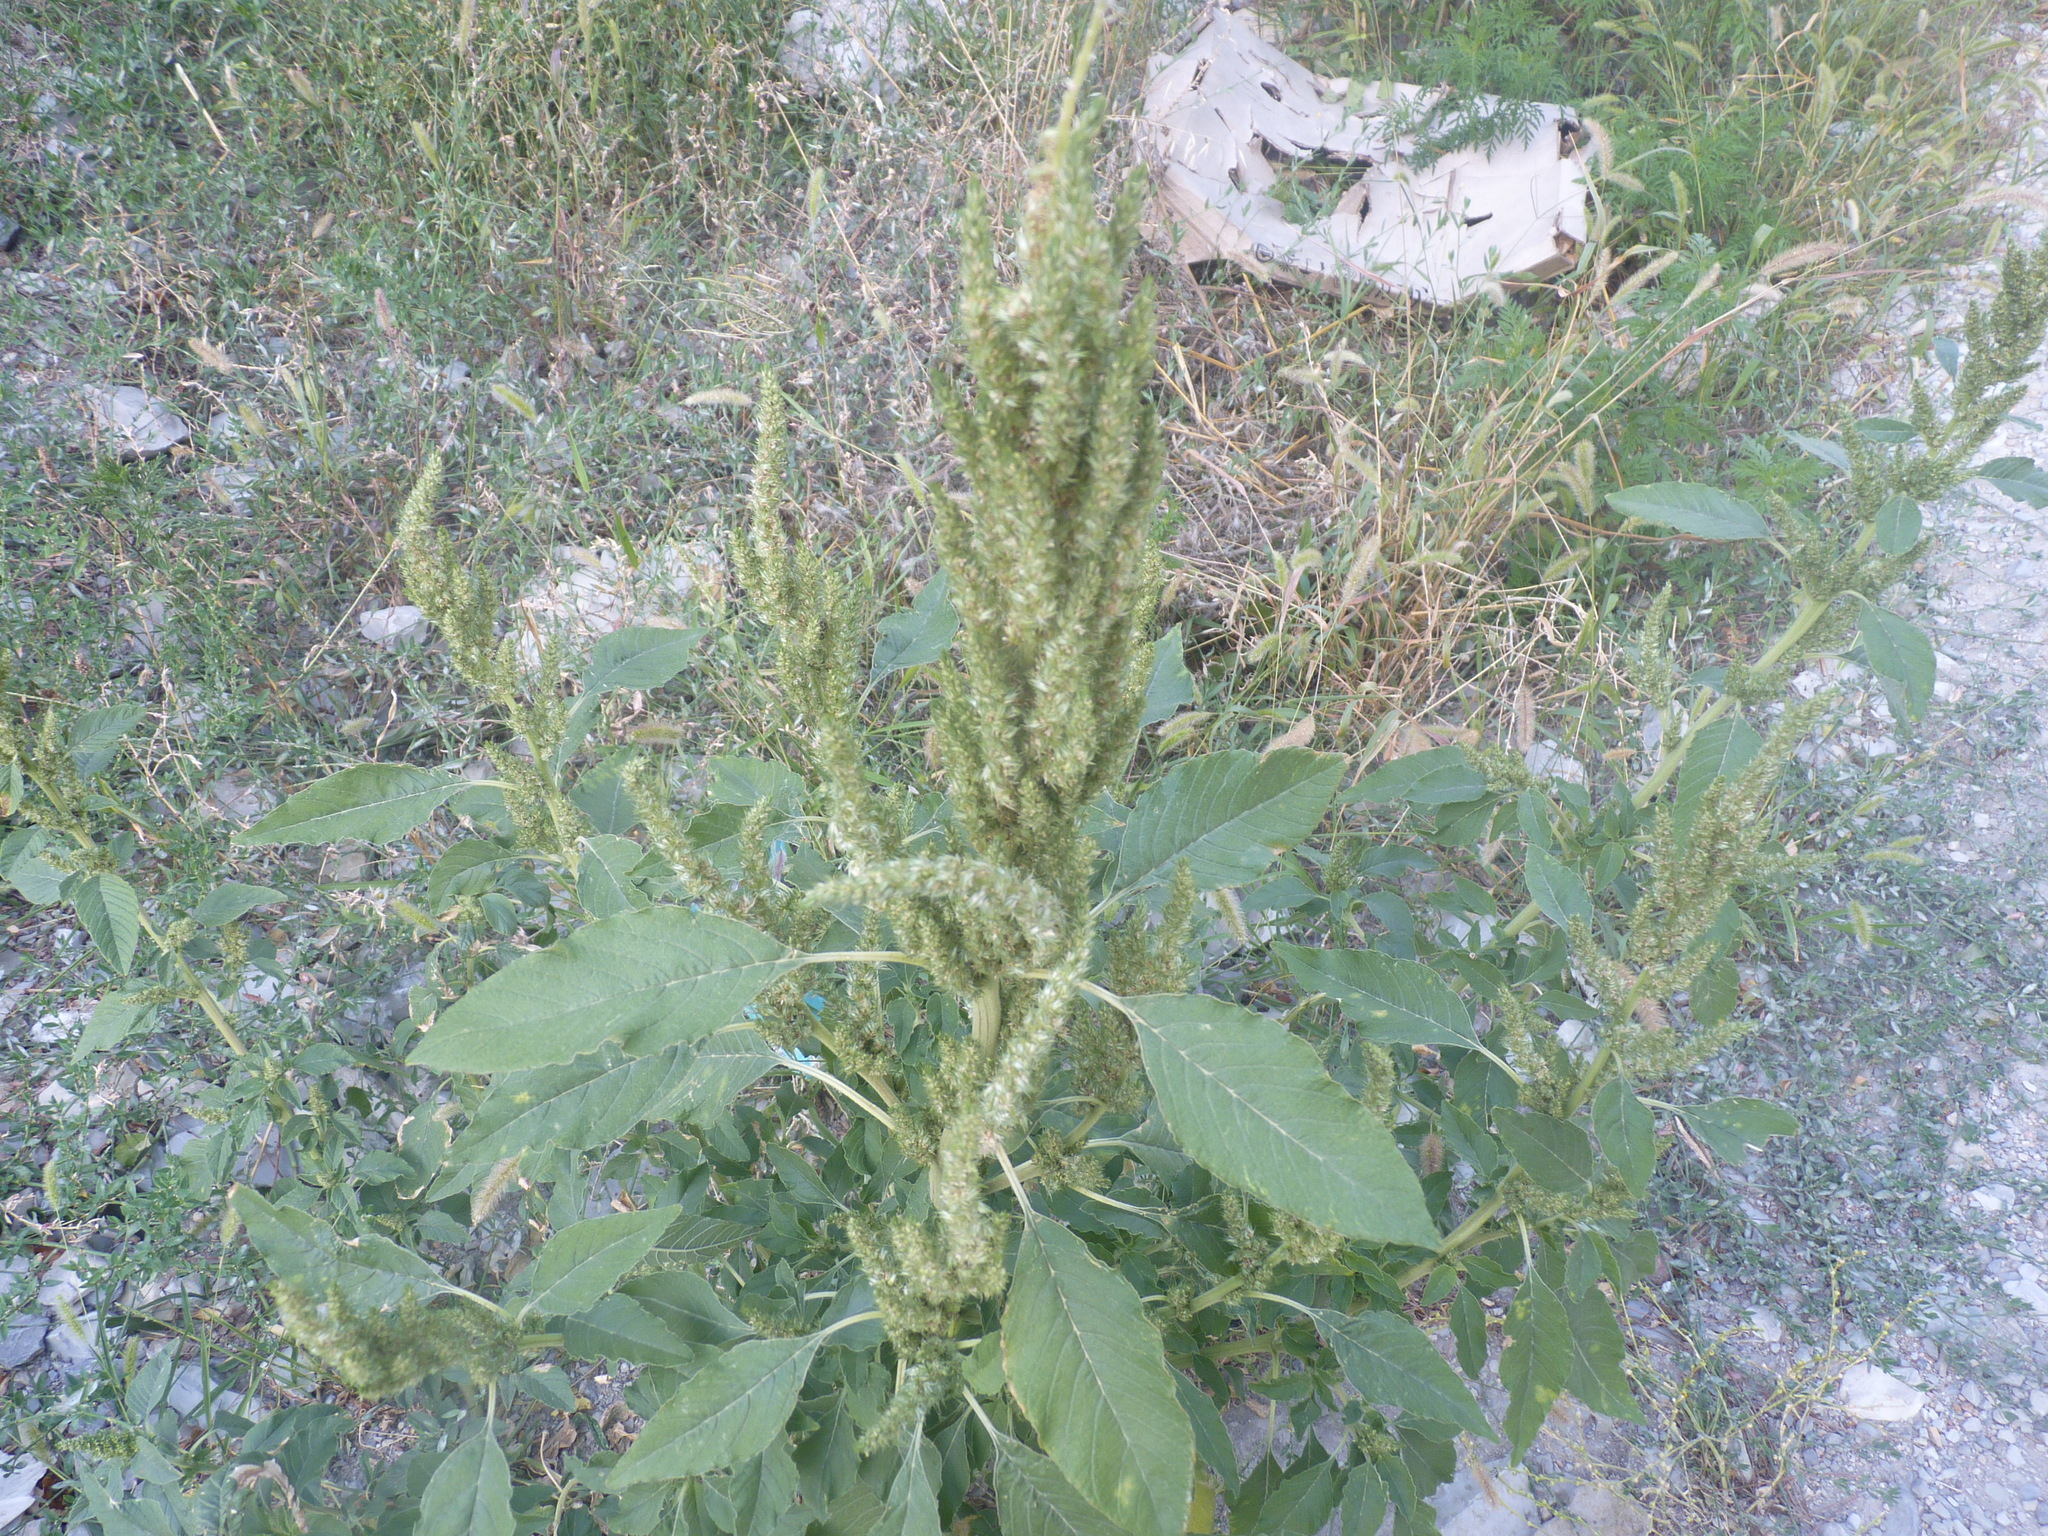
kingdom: Plantae
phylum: Tracheophyta
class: Magnoliopsida
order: Caryophyllales
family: Amaranthaceae
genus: Amaranthus
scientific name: Amaranthus retroflexus
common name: Redroot amaranth
